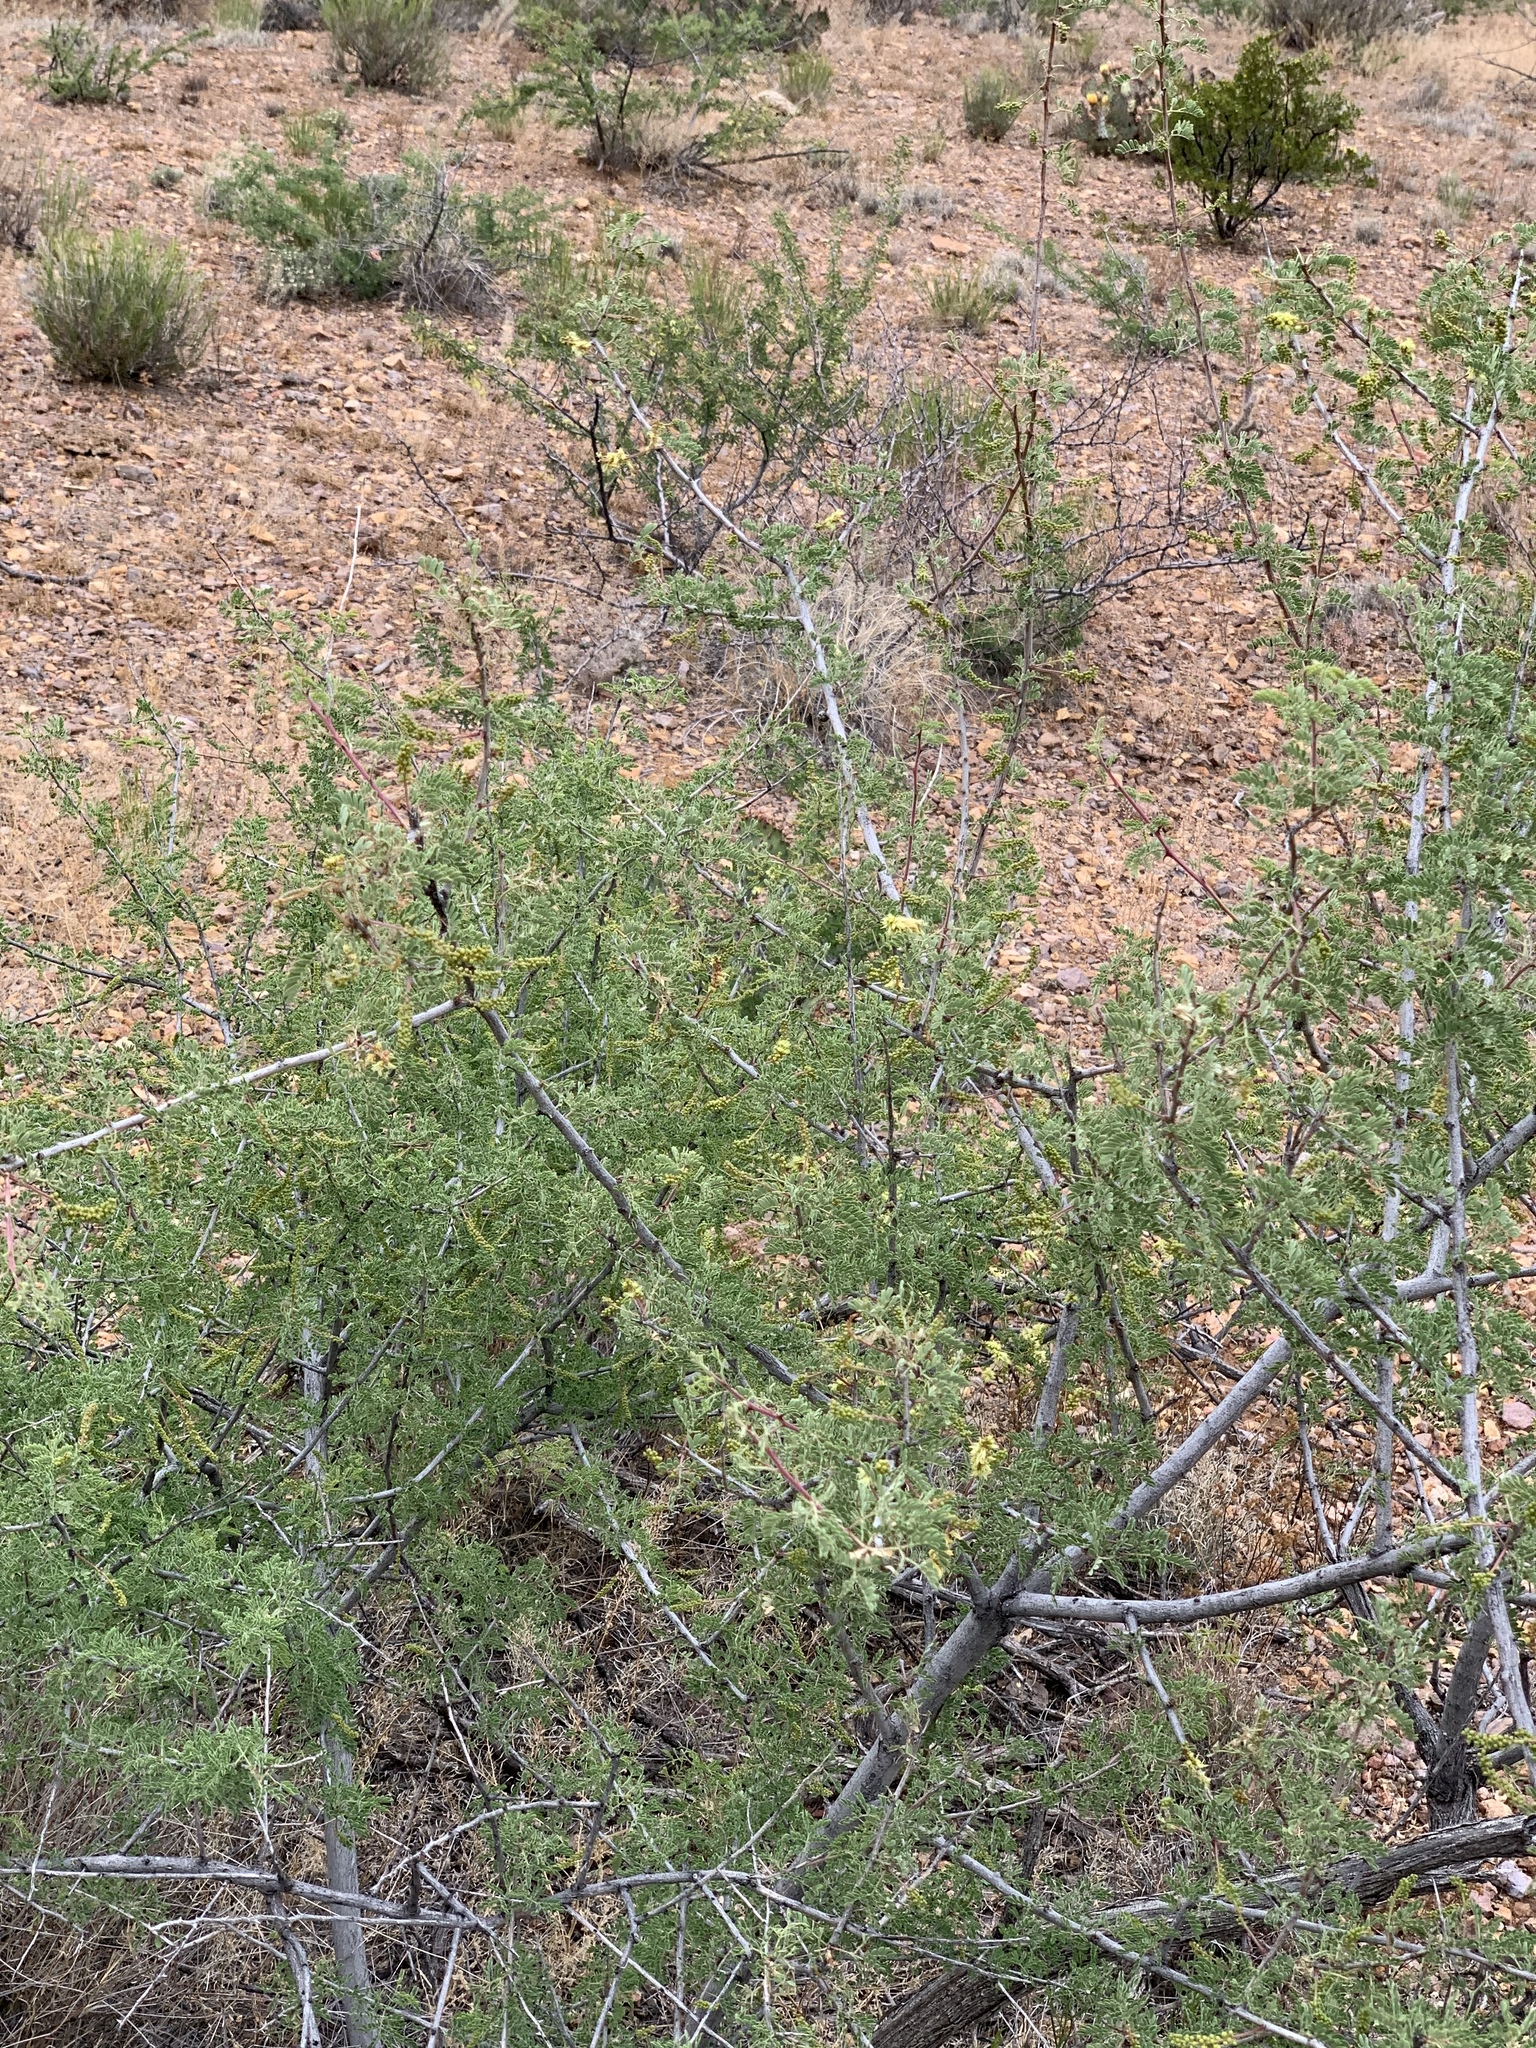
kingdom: Plantae
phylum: Tracheophyta
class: Magnoliopsida
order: Fabales
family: Fabaceae
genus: Senegalia
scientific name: Senegalia greggii
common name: Texas-mimosa
